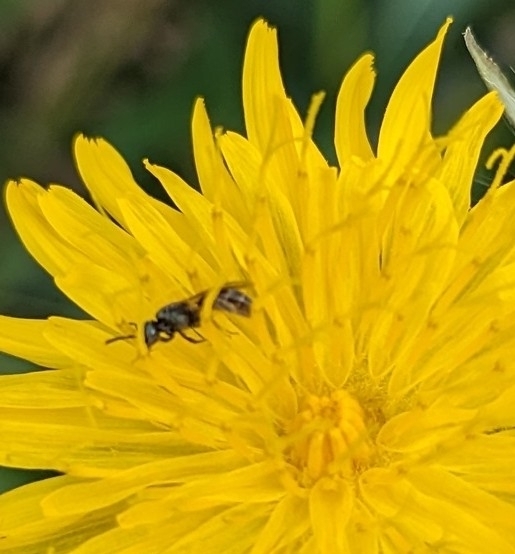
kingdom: Animalia
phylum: Arthropoda
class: Insecta
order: Hymenoptera
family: Halictidae
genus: Dialictus
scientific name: Dialictus
